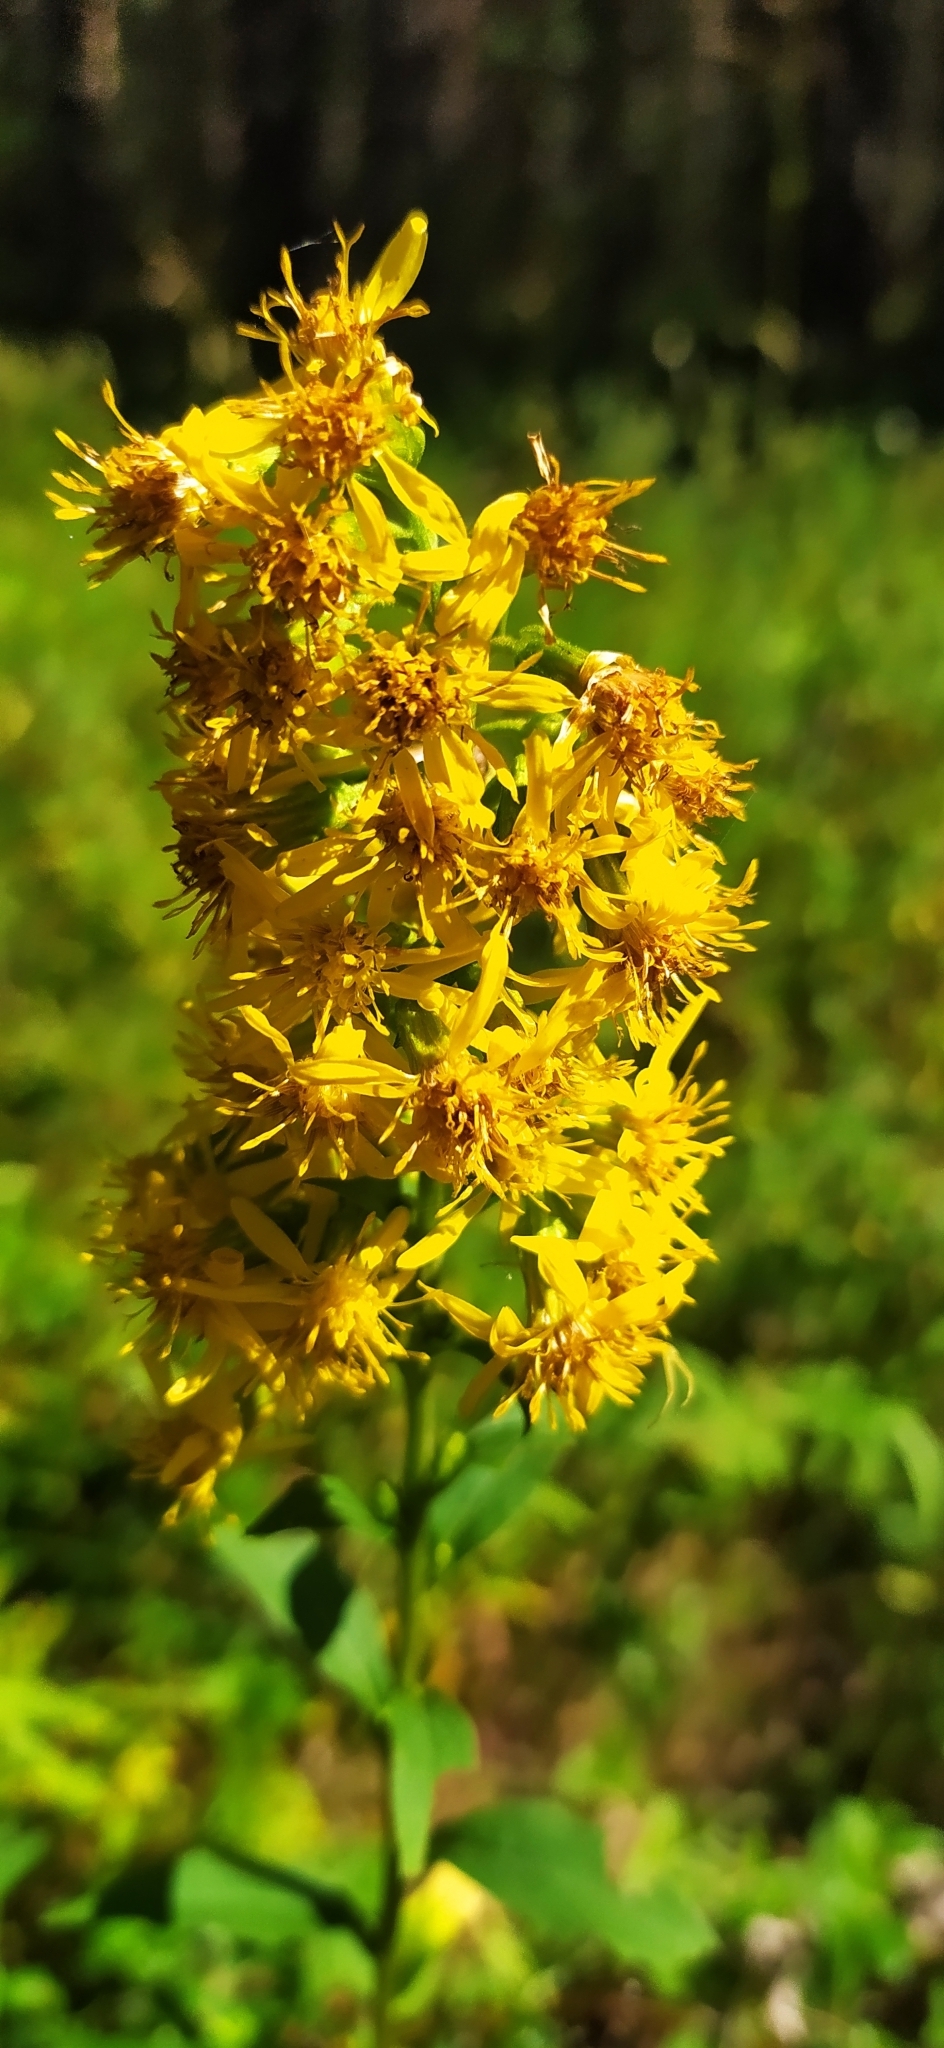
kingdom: Plantae
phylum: Tracheophyta
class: Magnoliopsida
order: Asterales
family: Asteraceae
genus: Solidago
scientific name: Solidago virgaurea
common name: Goldenrod
